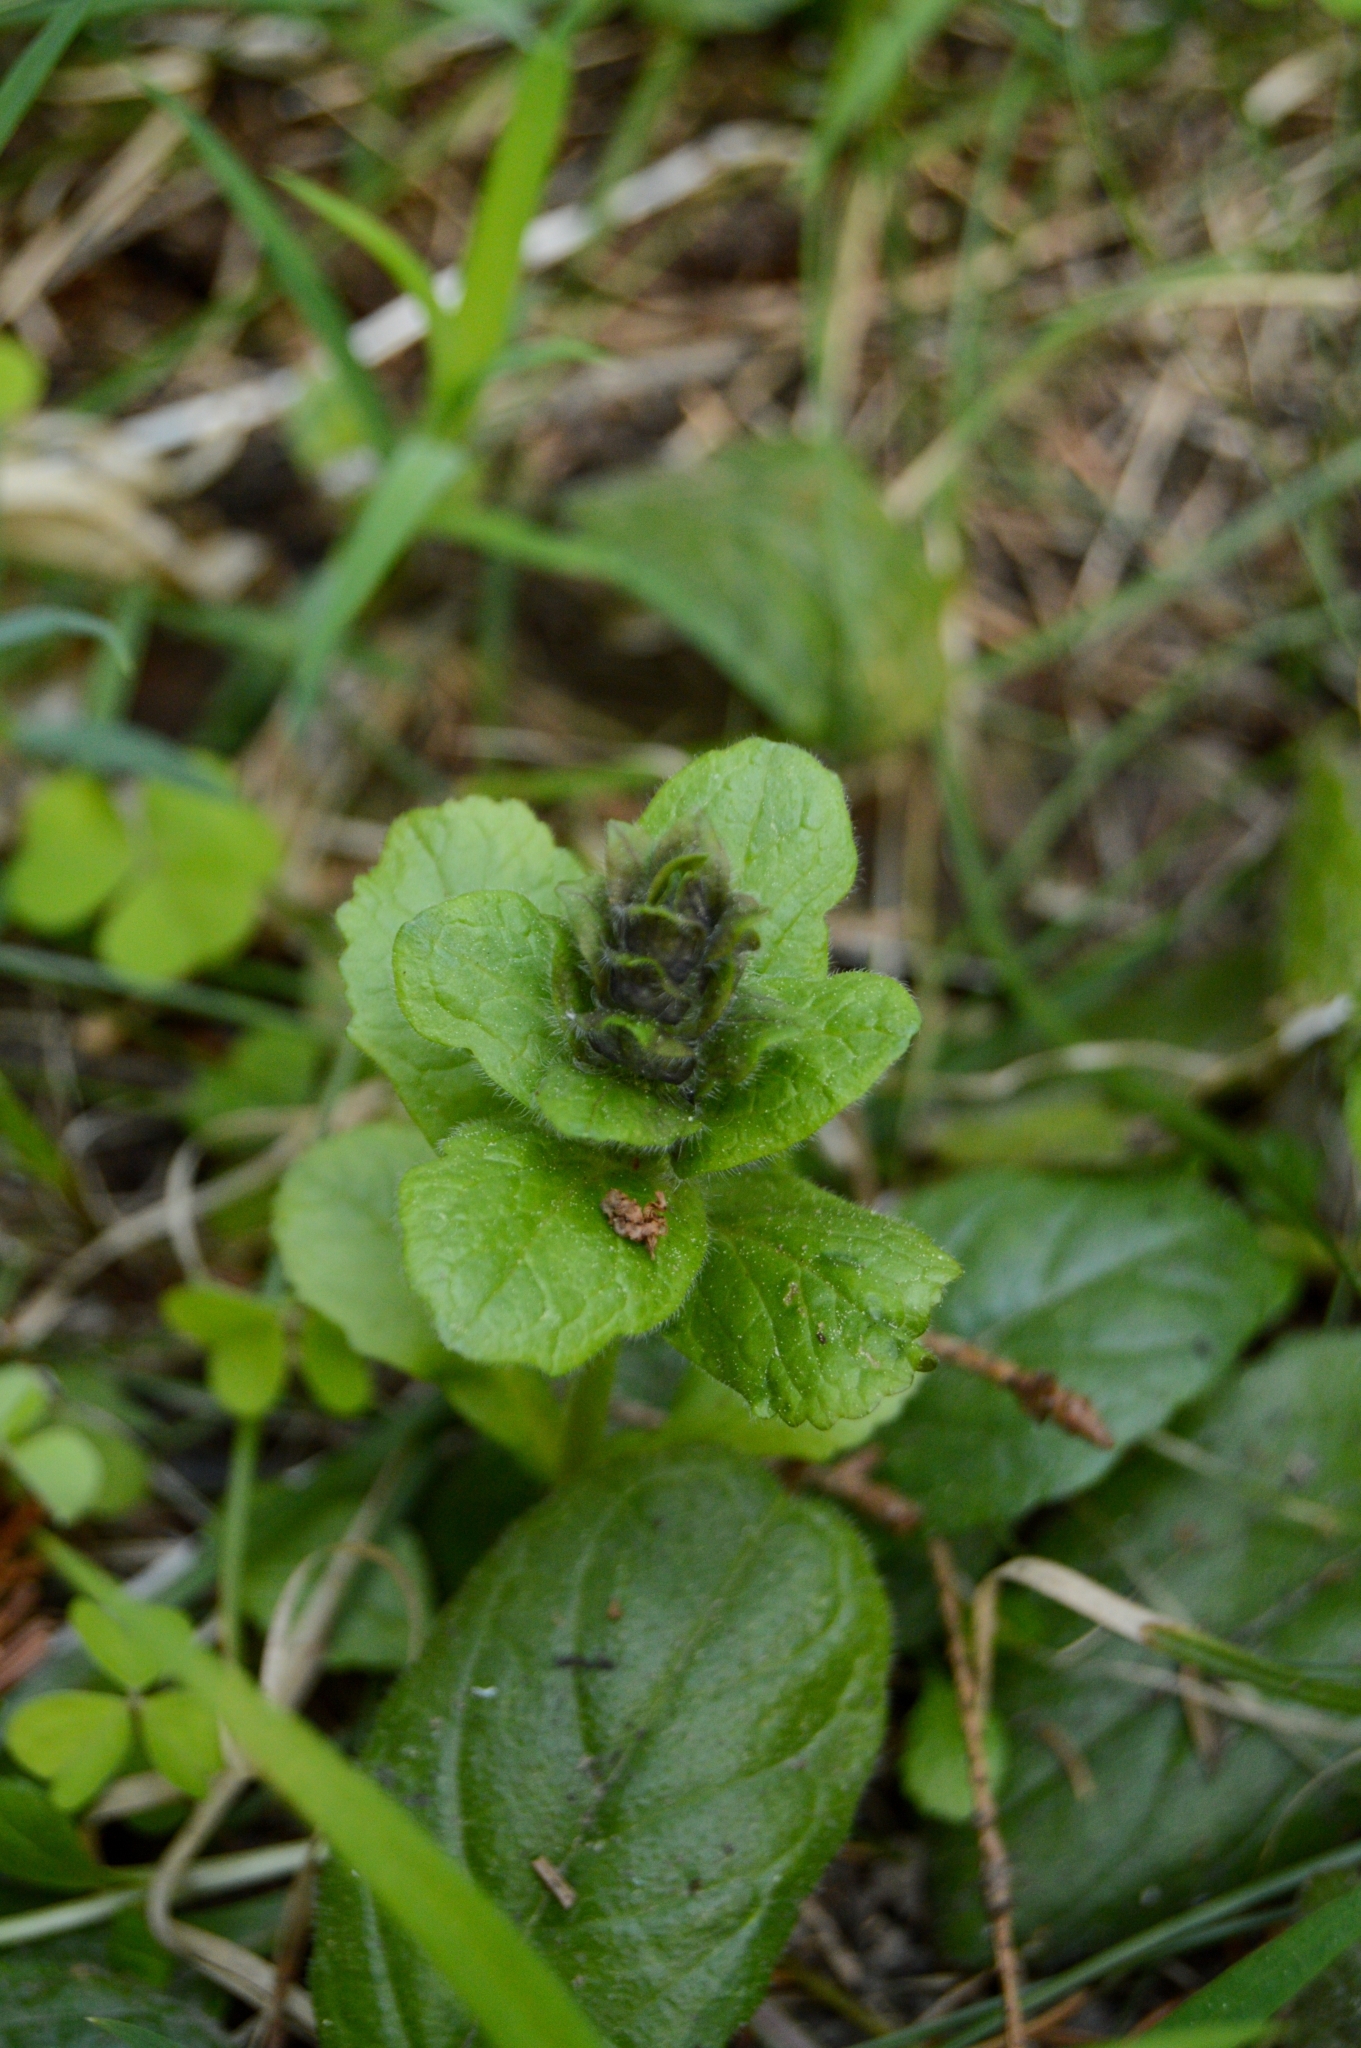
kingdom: Plantae
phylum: Tracheophyta
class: Magnoliopsida
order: Lamiales
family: Lamiaceae
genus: Ajuga
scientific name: Ajuga reptans
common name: Bugle
